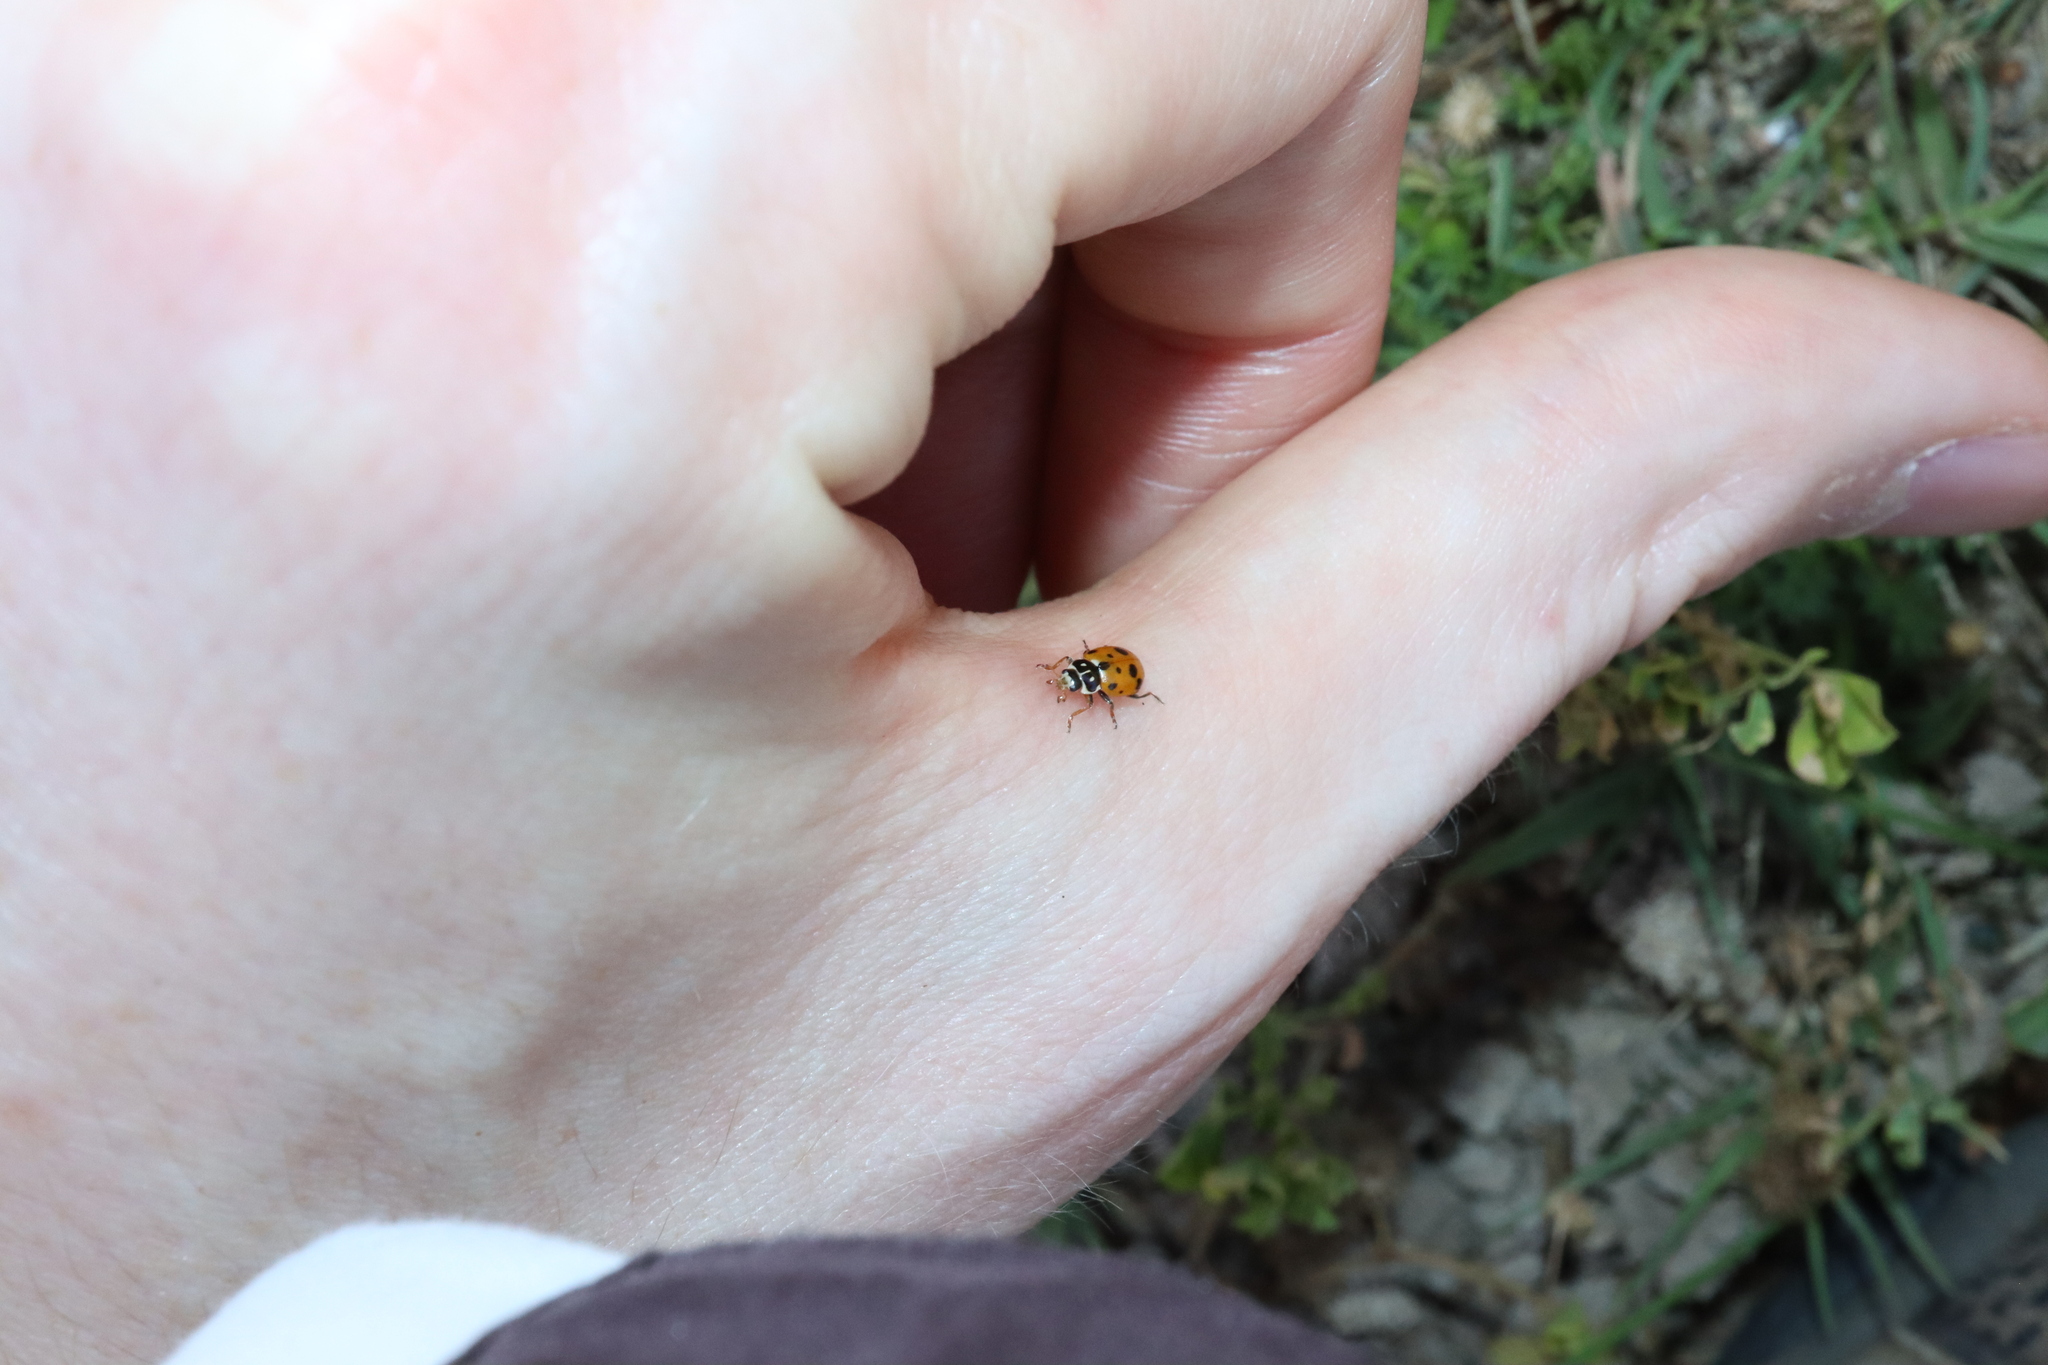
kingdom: Animalia
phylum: Arthropoda
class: Insecta
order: Coleoptera
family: Coccinellidae
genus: Hippodamia
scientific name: Hippodamia variegata
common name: Ladybird beetle
